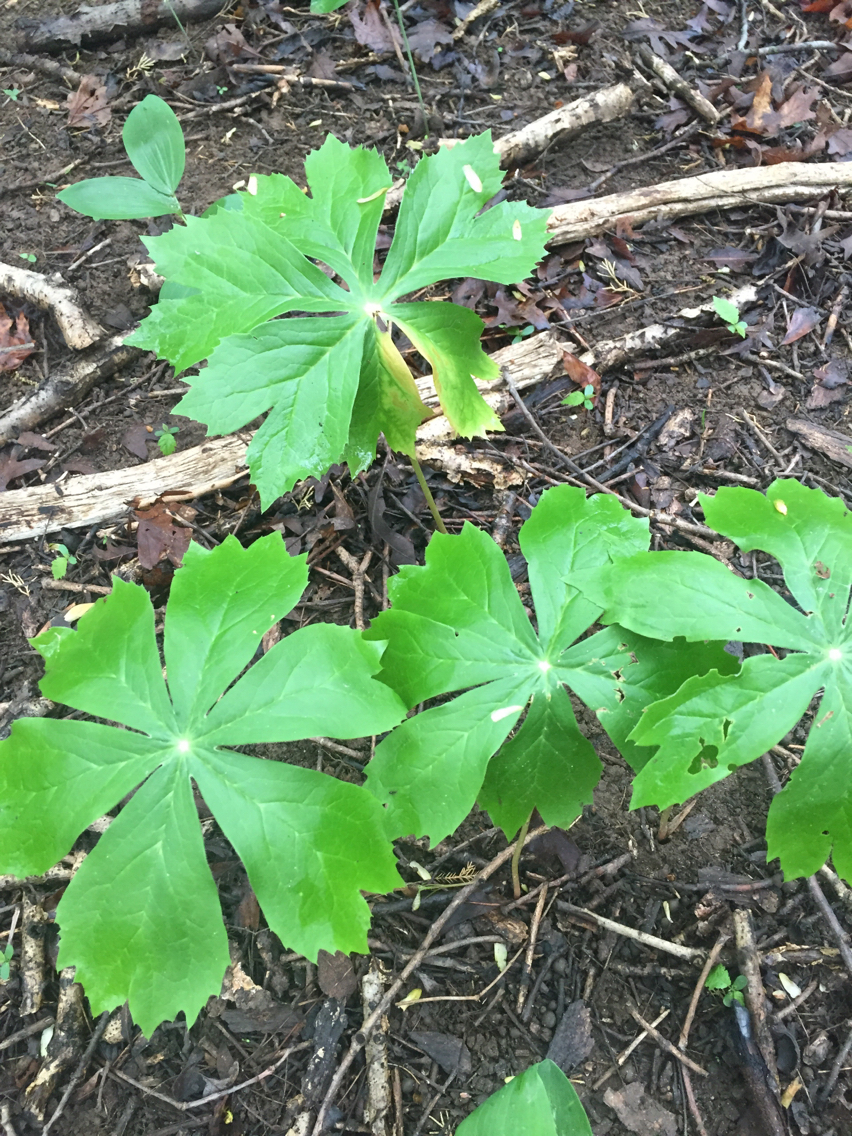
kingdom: Plantae
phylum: Tracheophyta
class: Magnoliopsida
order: Ranunculales
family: Berberidaceae
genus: Podophyllum
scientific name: Podophyllum peltatum
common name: Wild mandrake
